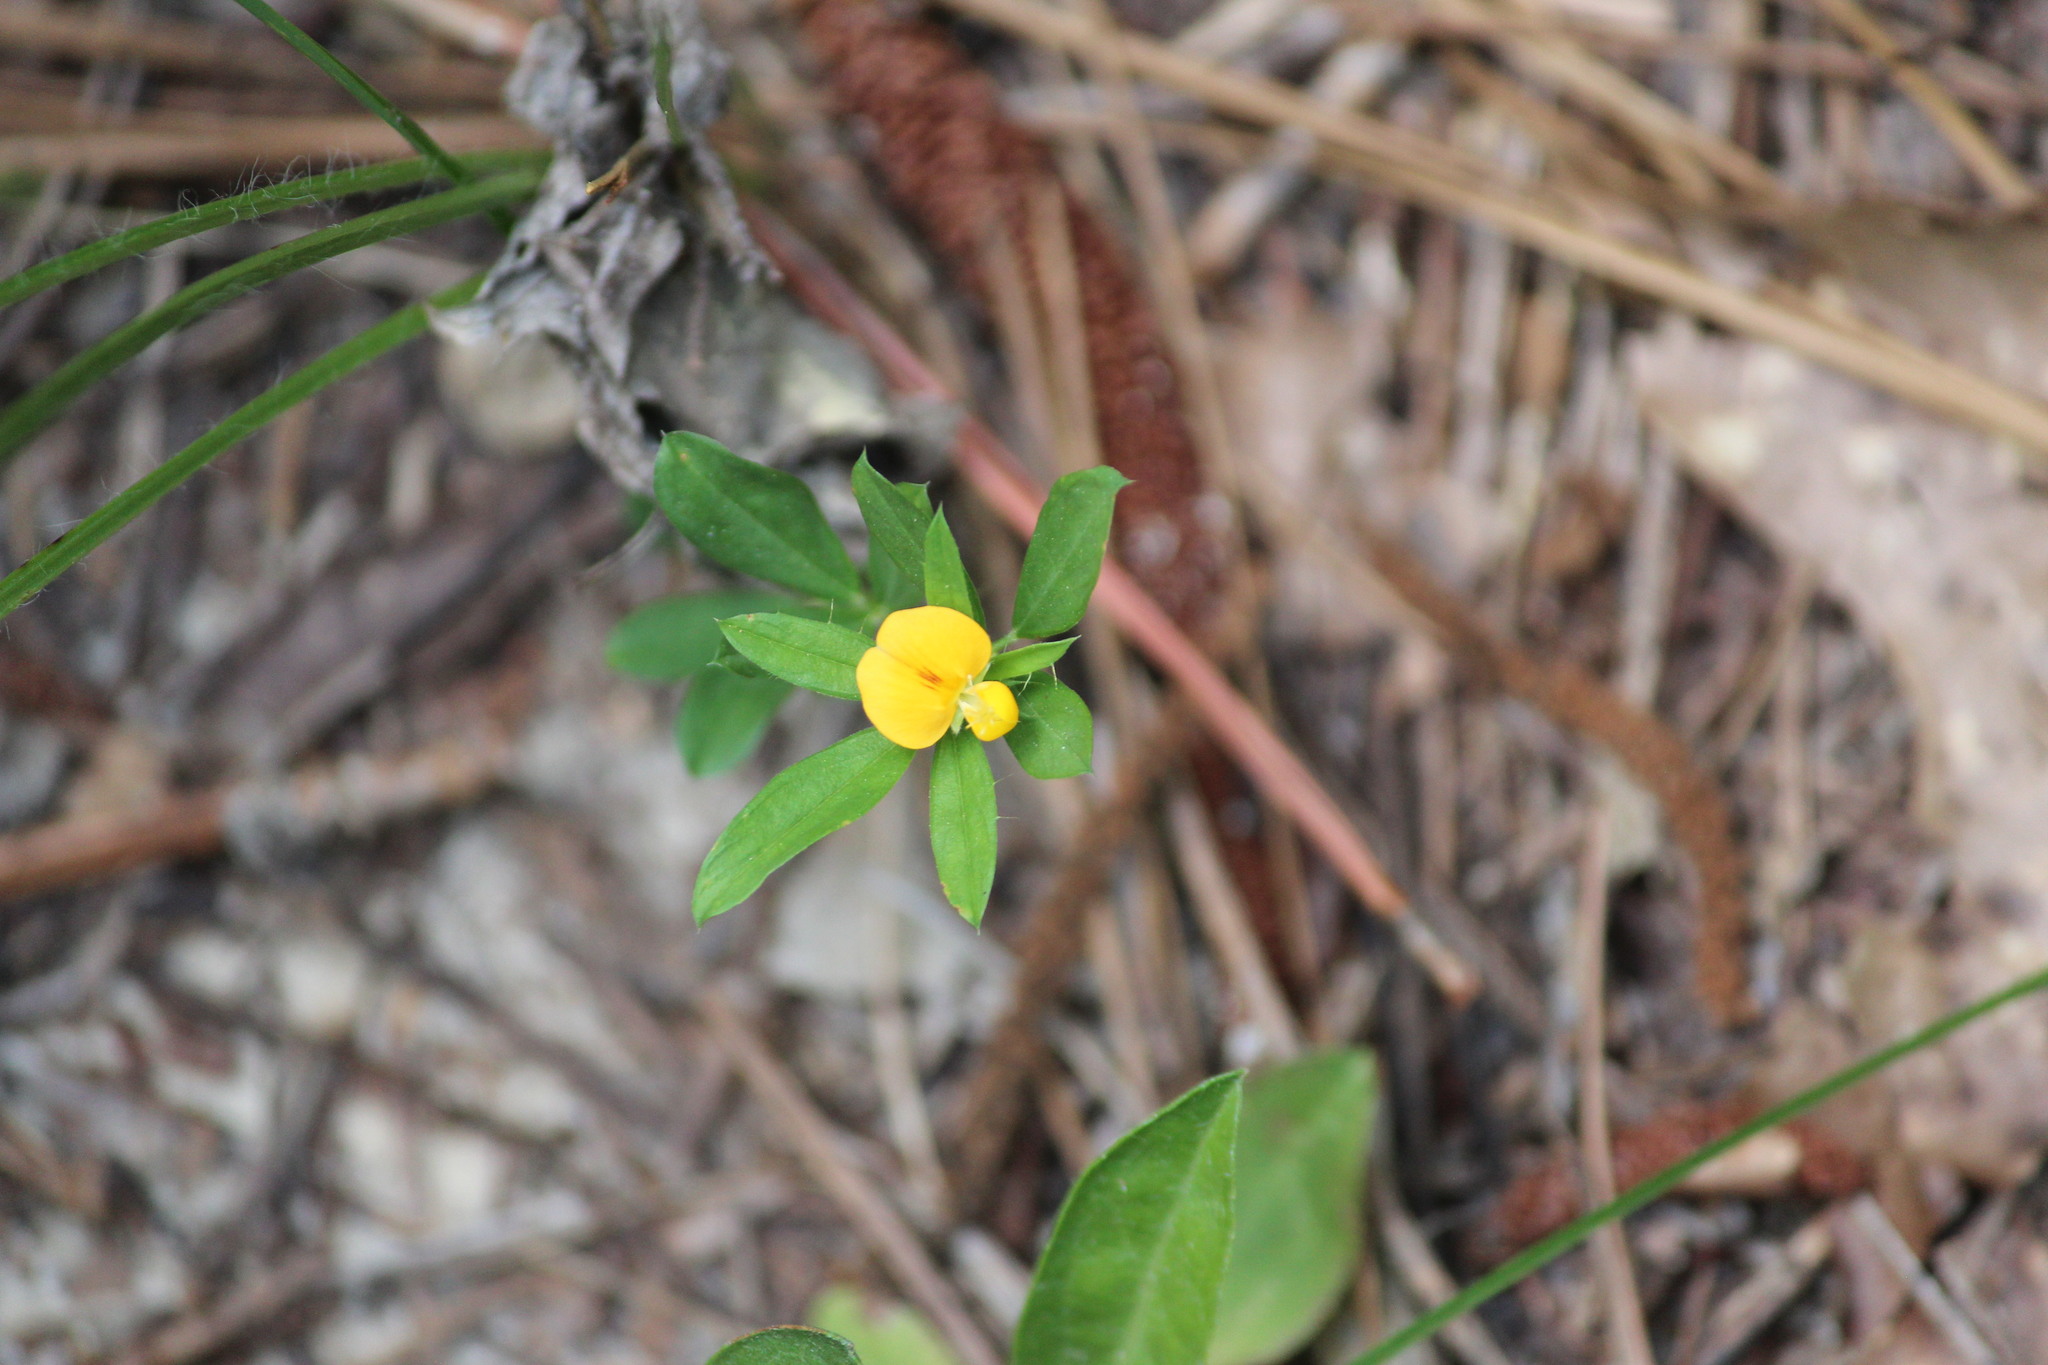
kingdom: Plantae
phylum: Tracheophyta
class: Magnoliopsida
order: Fabales
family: Fabaceae
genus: Stylosanthes
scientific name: Stylosanthes biflora
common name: Two-flower pencil-flower
